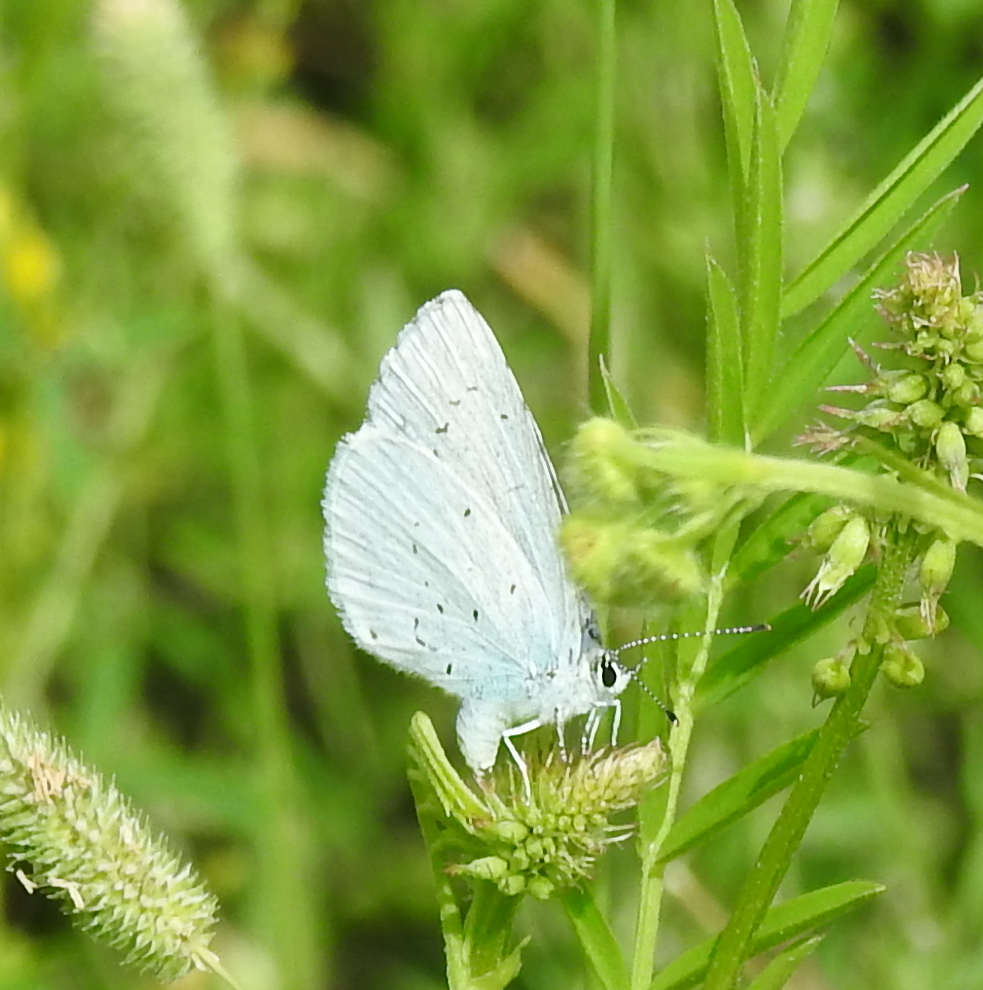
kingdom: Animalia
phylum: Arthropoda
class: Insecta
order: Lepidoptera
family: Lycaenidae
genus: Celastrina
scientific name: Celastrina argiolus
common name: Holly blue
